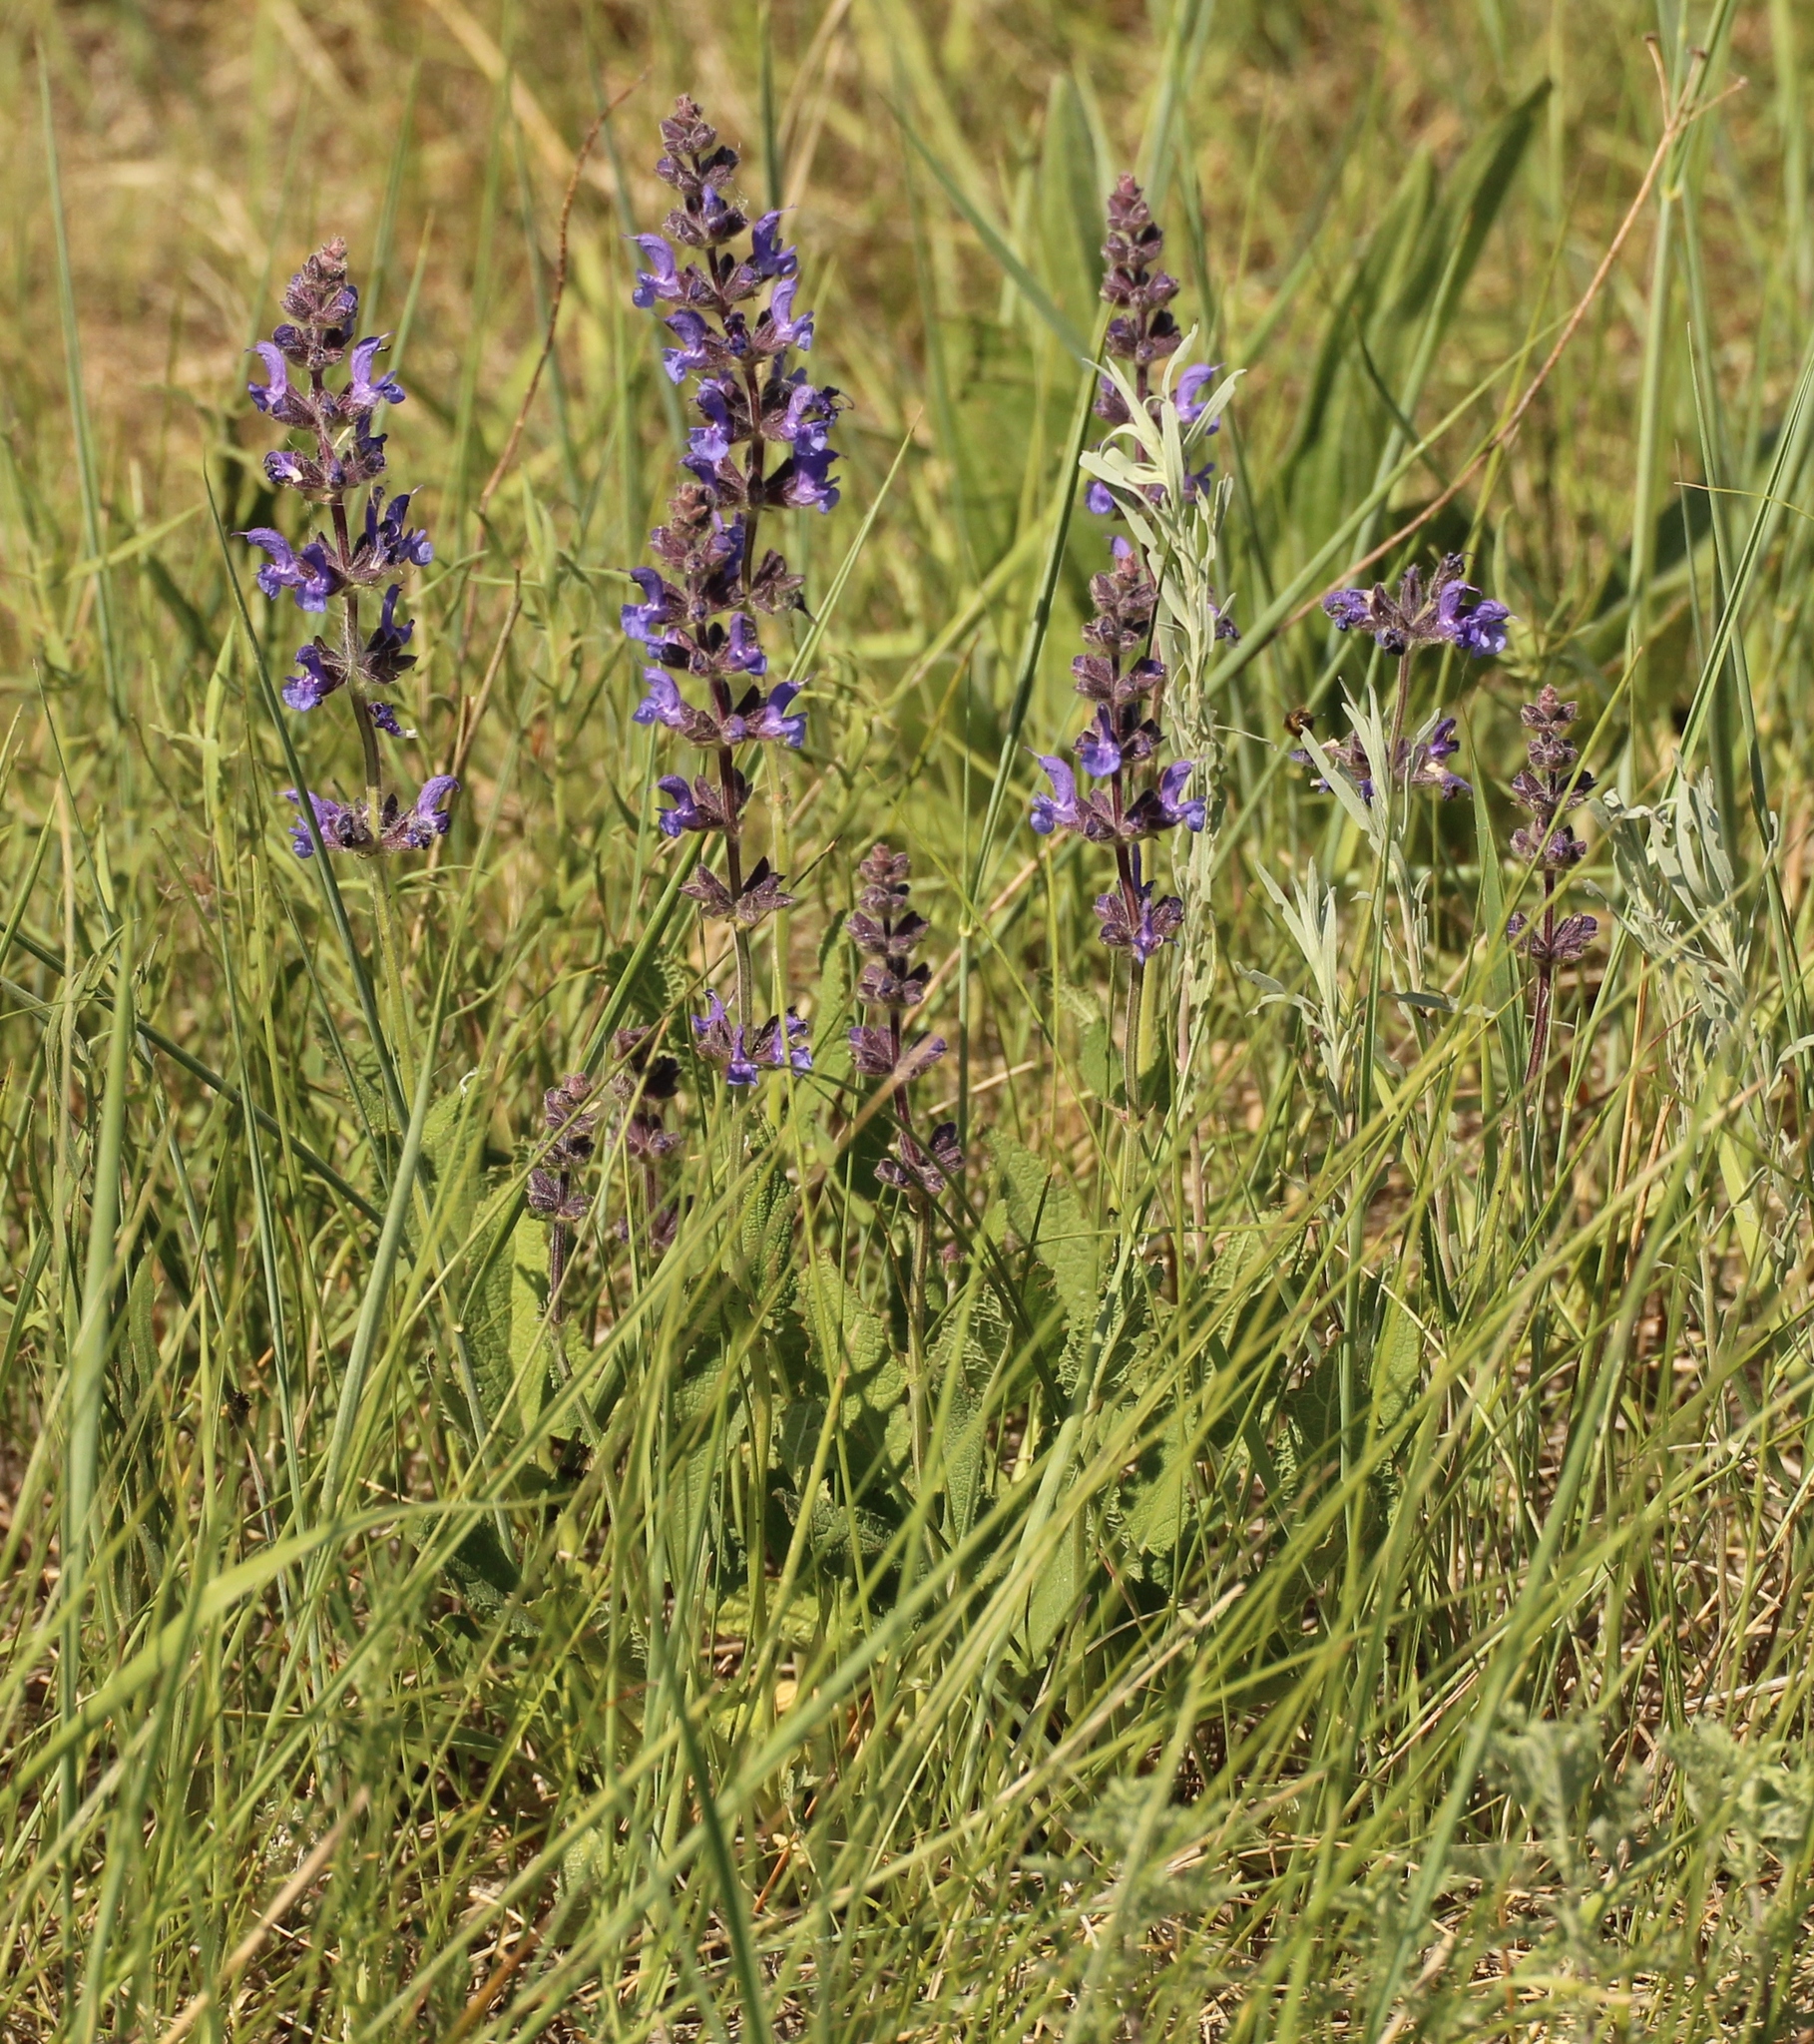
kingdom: Plantae
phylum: Tracheophyta
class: Magnoliopsida
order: Lamiales
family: Lamiaceae
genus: Salvia
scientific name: Salvia dumetorum
